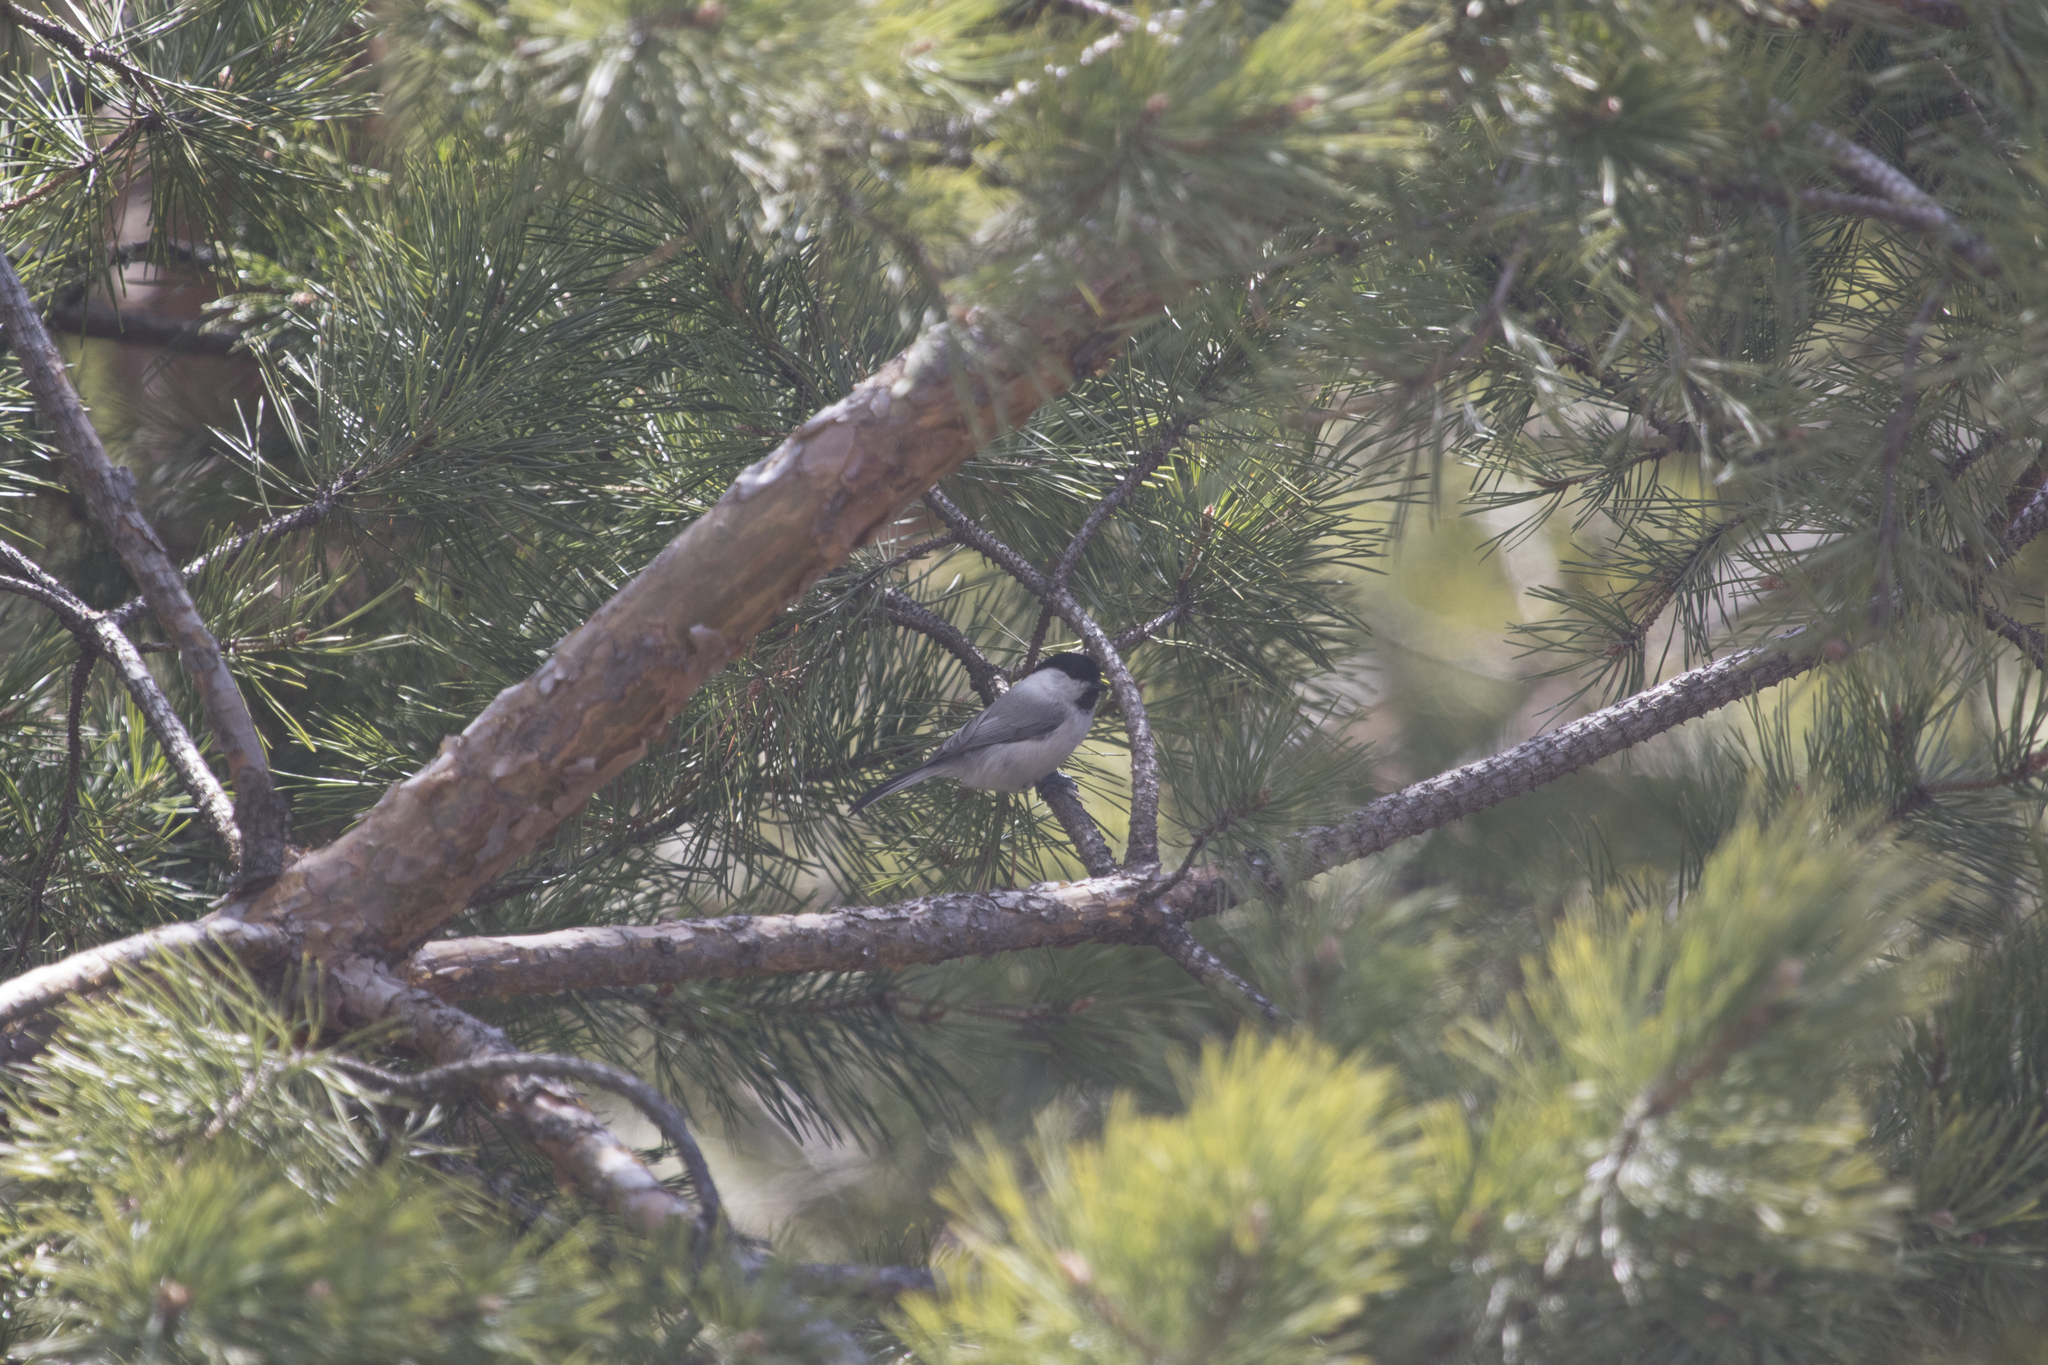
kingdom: Animalia
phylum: Chordata
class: Aves
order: Passeriformes
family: Paridae
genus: Poecile
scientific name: Poecile montanus
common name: Willow tit
